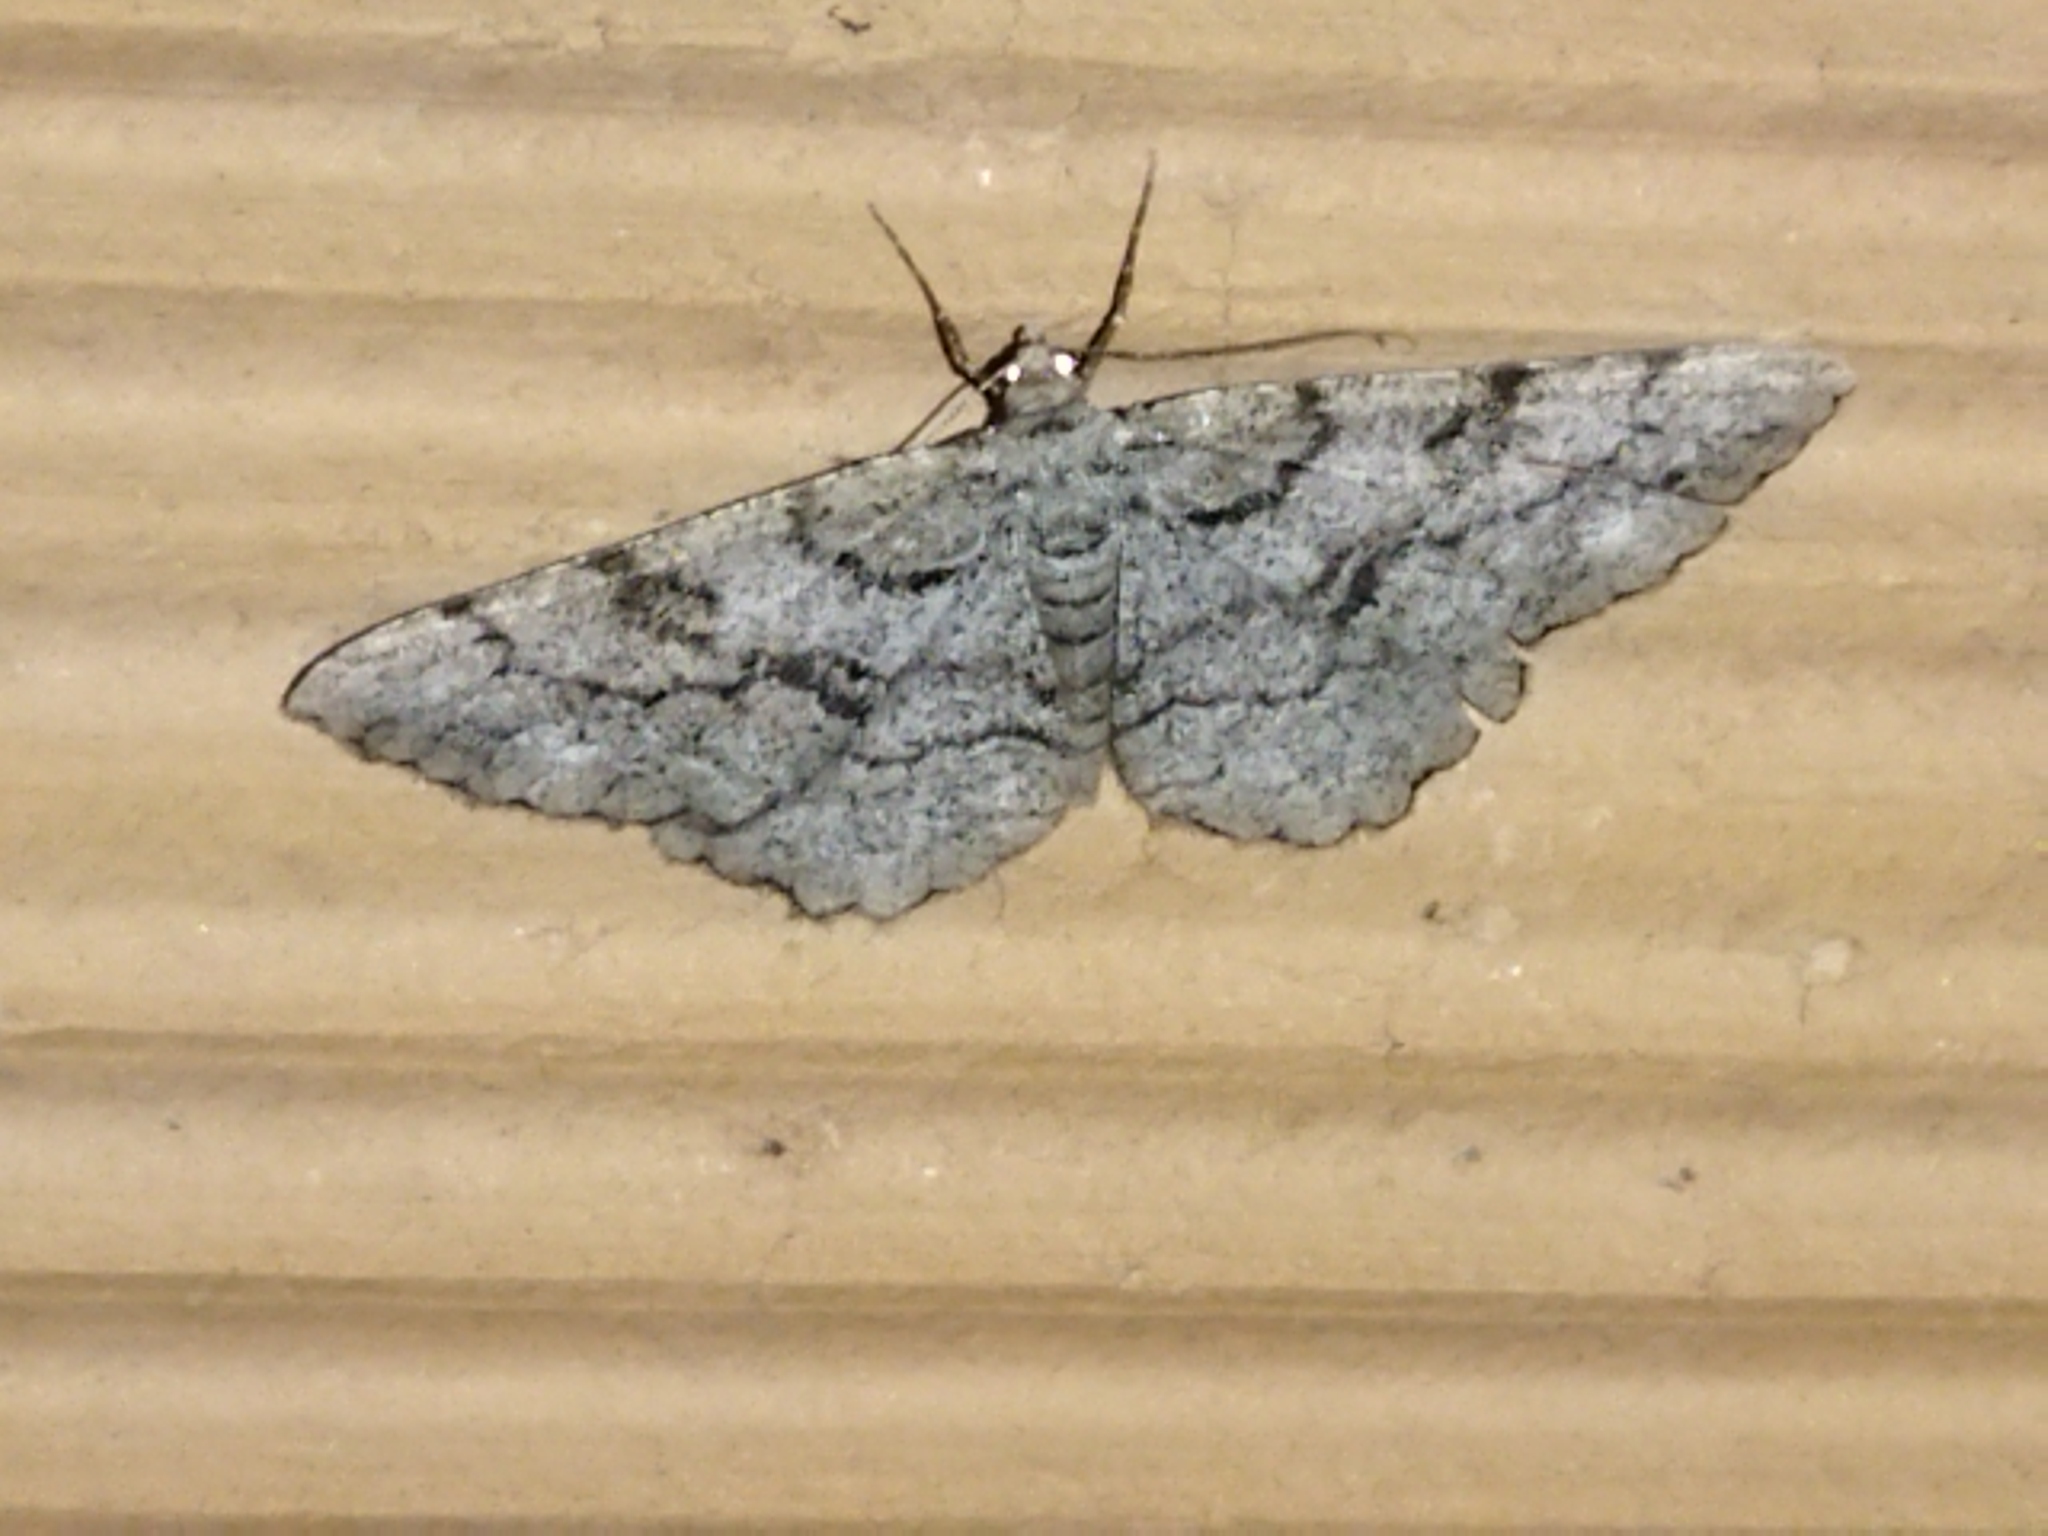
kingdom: Animalia
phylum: Arthropoda
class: Insecta
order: Lepidoptera
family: Geometridae
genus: Peribatodes
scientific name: Peribatodes secundaria
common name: Feathered beauty
